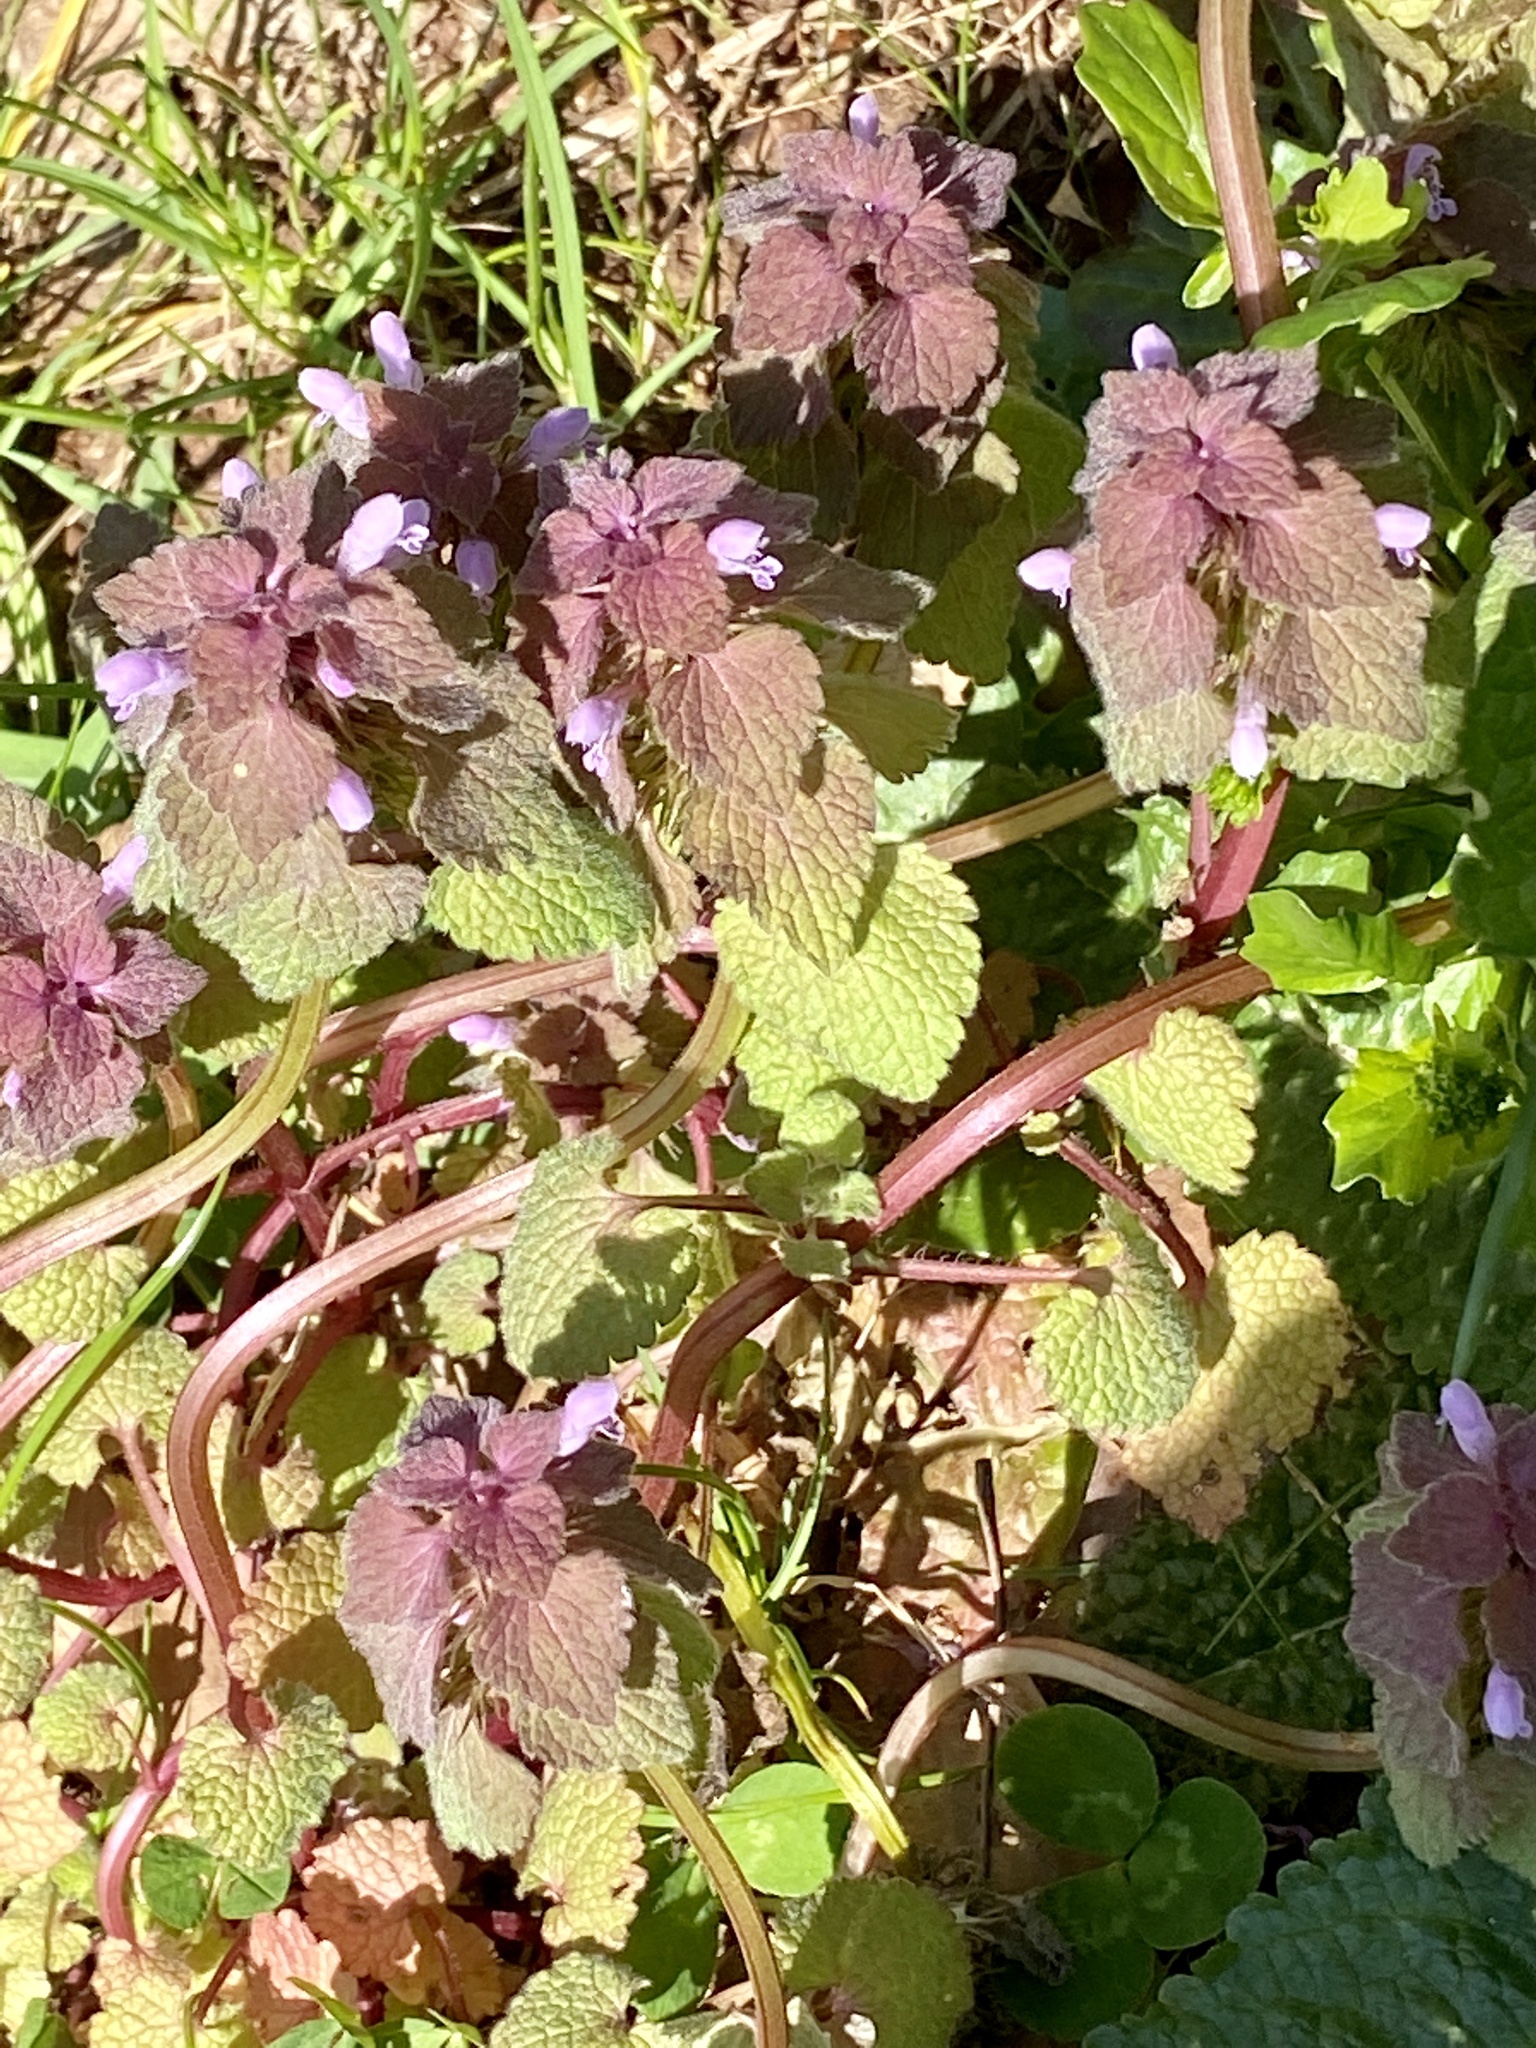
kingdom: Plantae
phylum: Tracheophyta
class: Magnoliopsida
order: Lamiales
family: Lamiaceae
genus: Lamium
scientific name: Lamium purpureum
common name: Red dead-nettle
